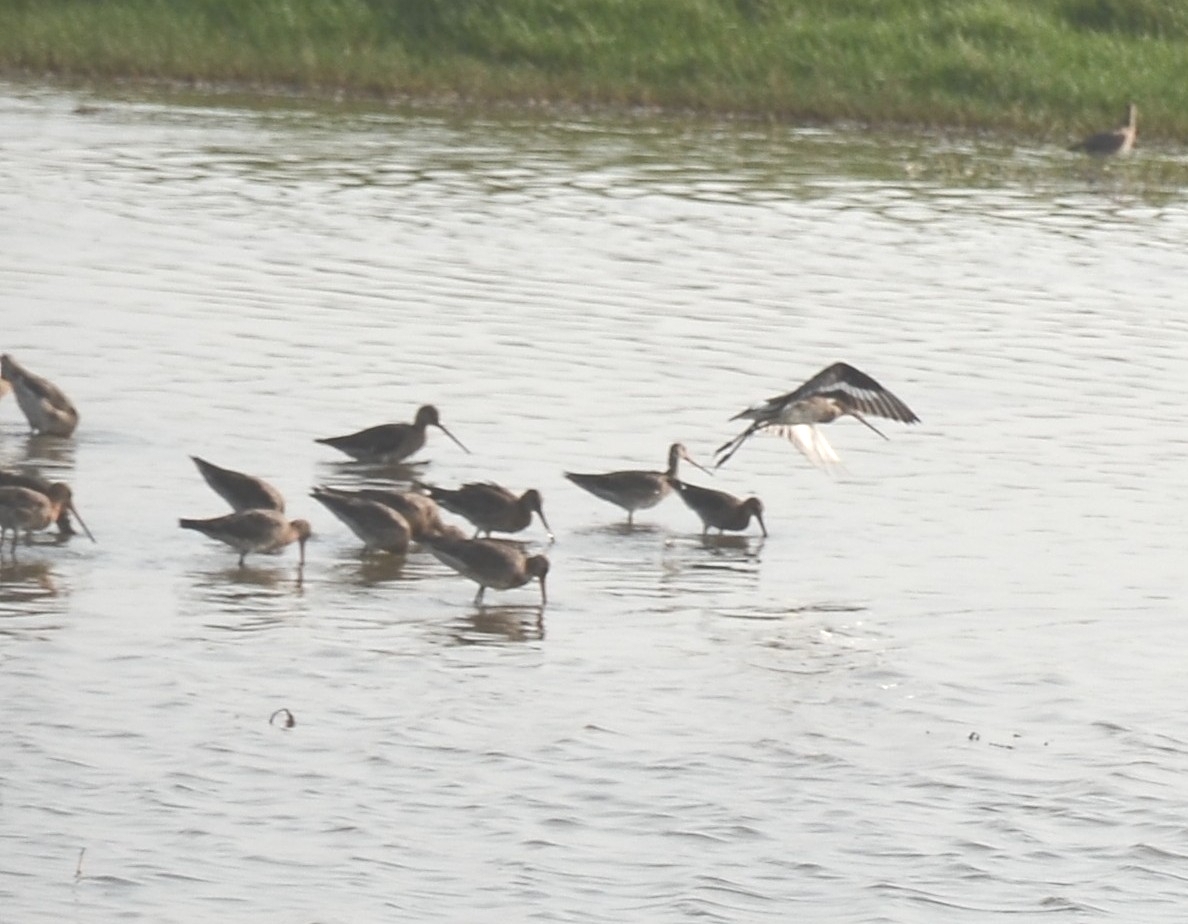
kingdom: Animalia
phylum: Chordata
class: Aves
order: Charadriiformes
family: Scolopacidae
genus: Limosa
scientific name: Limosa limosa
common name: Black-tailed godwit
